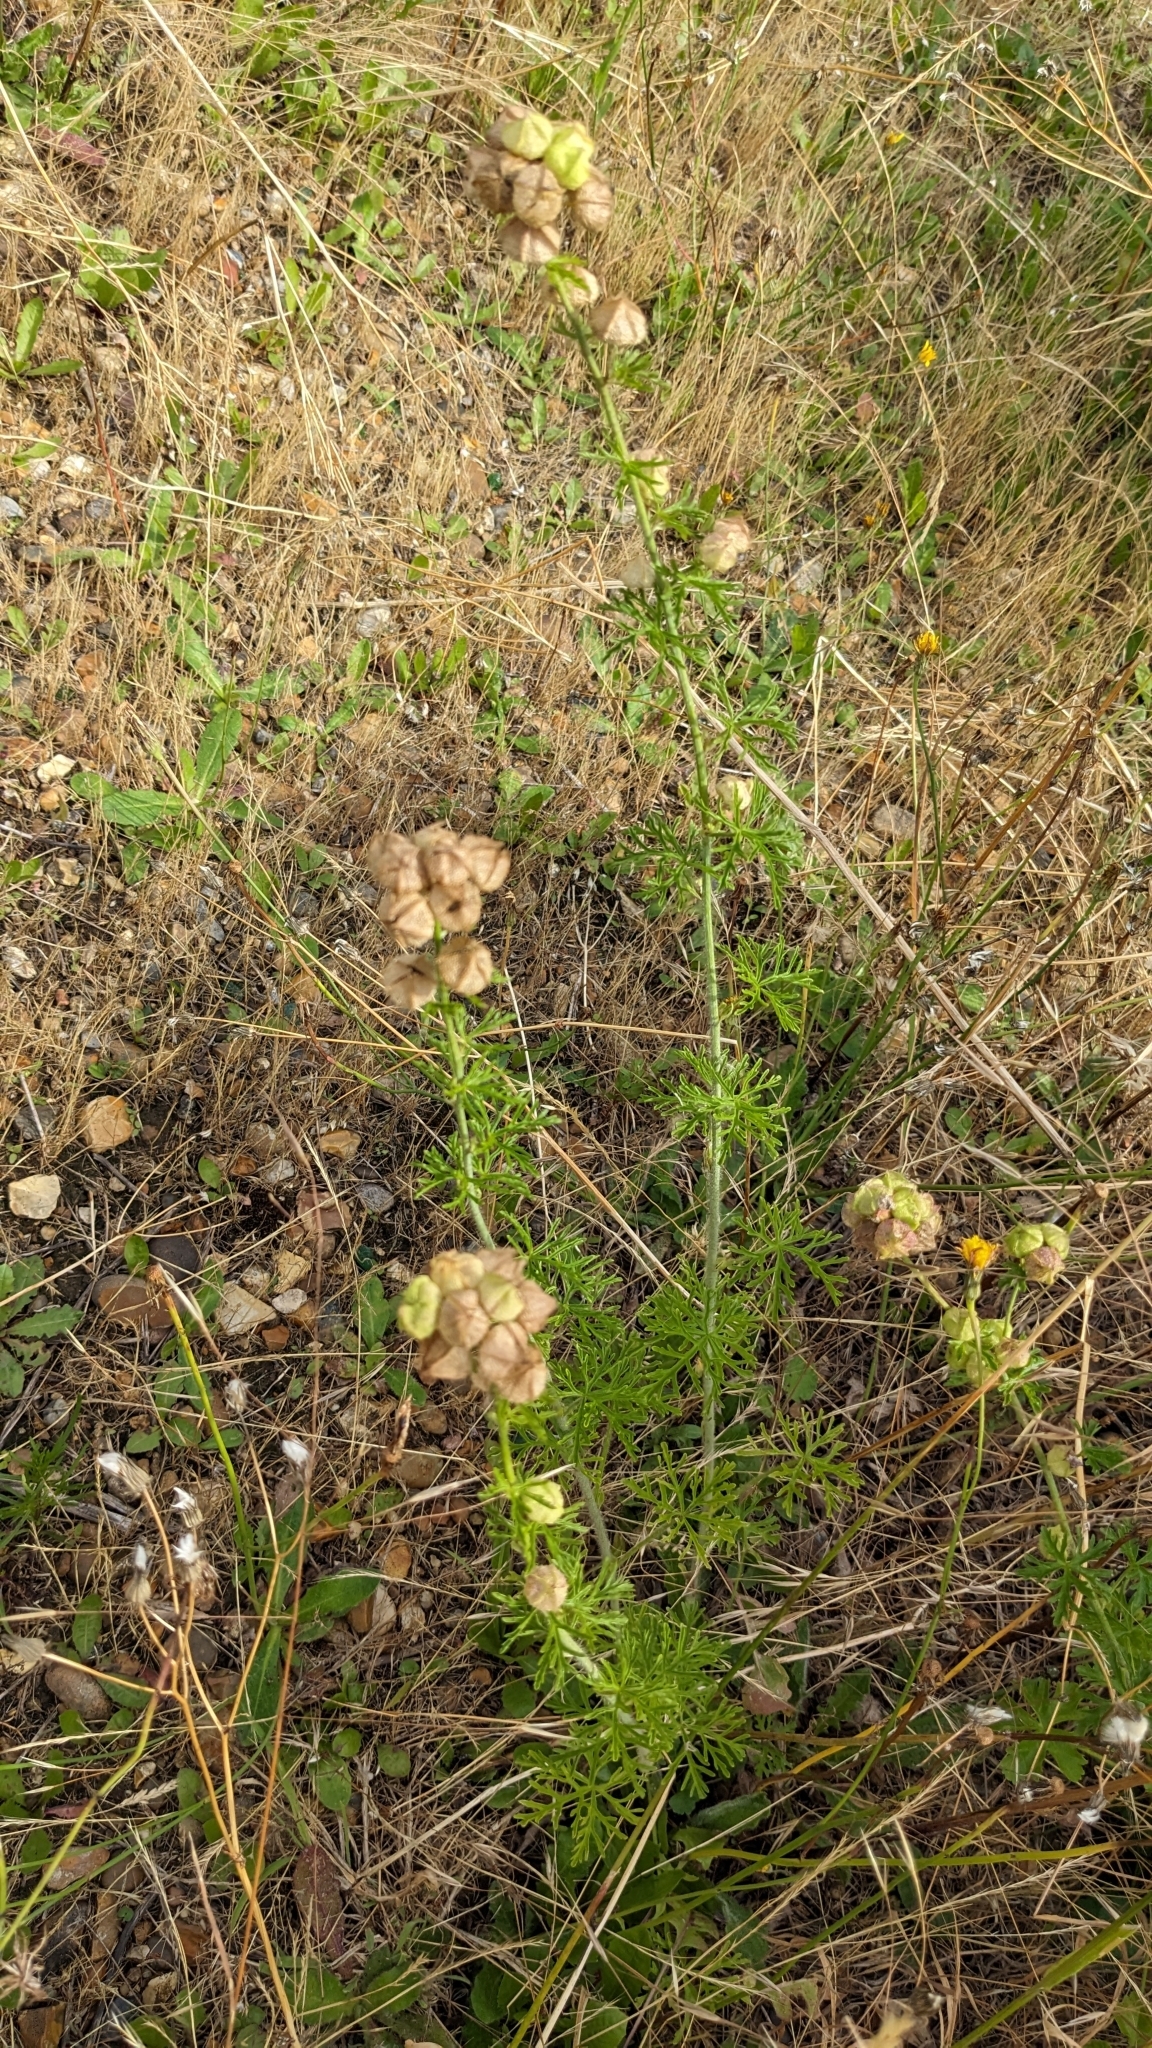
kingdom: Plantae
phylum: Tracheophyta
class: Magnoliopsida
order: Malvales
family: Malvaceae
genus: Malva
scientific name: Malva moschata
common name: Musk mallow
